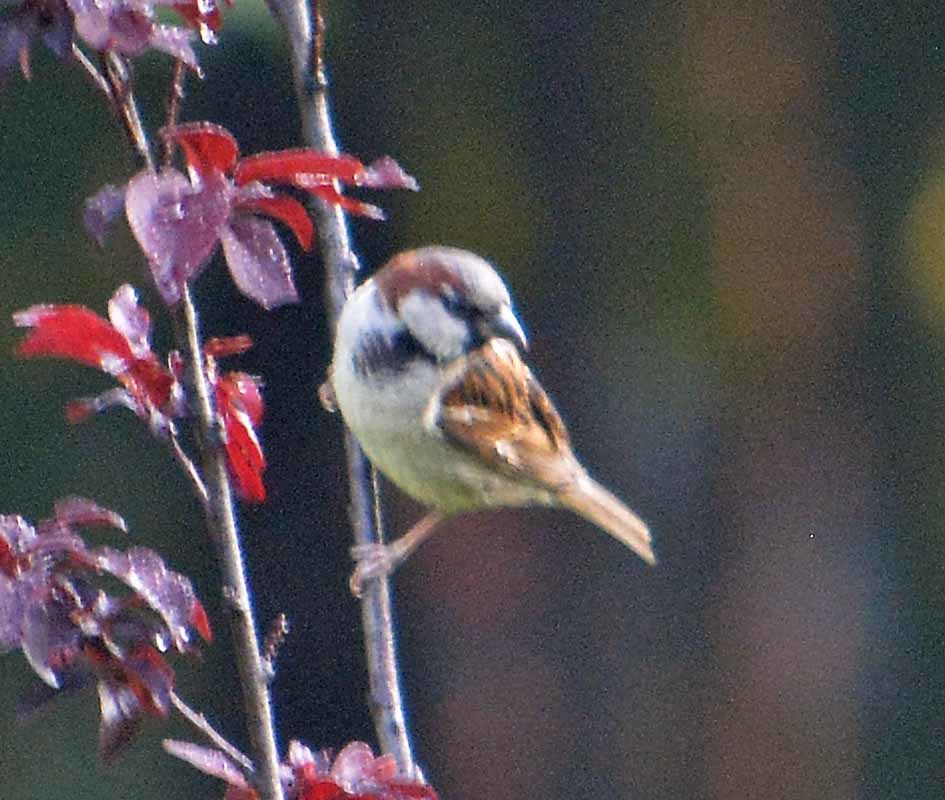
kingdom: Animalia
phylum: Chordata
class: Aves
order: Passeriformes
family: Passeridae
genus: Passer
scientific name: Passer domesticus
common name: House sparrow
